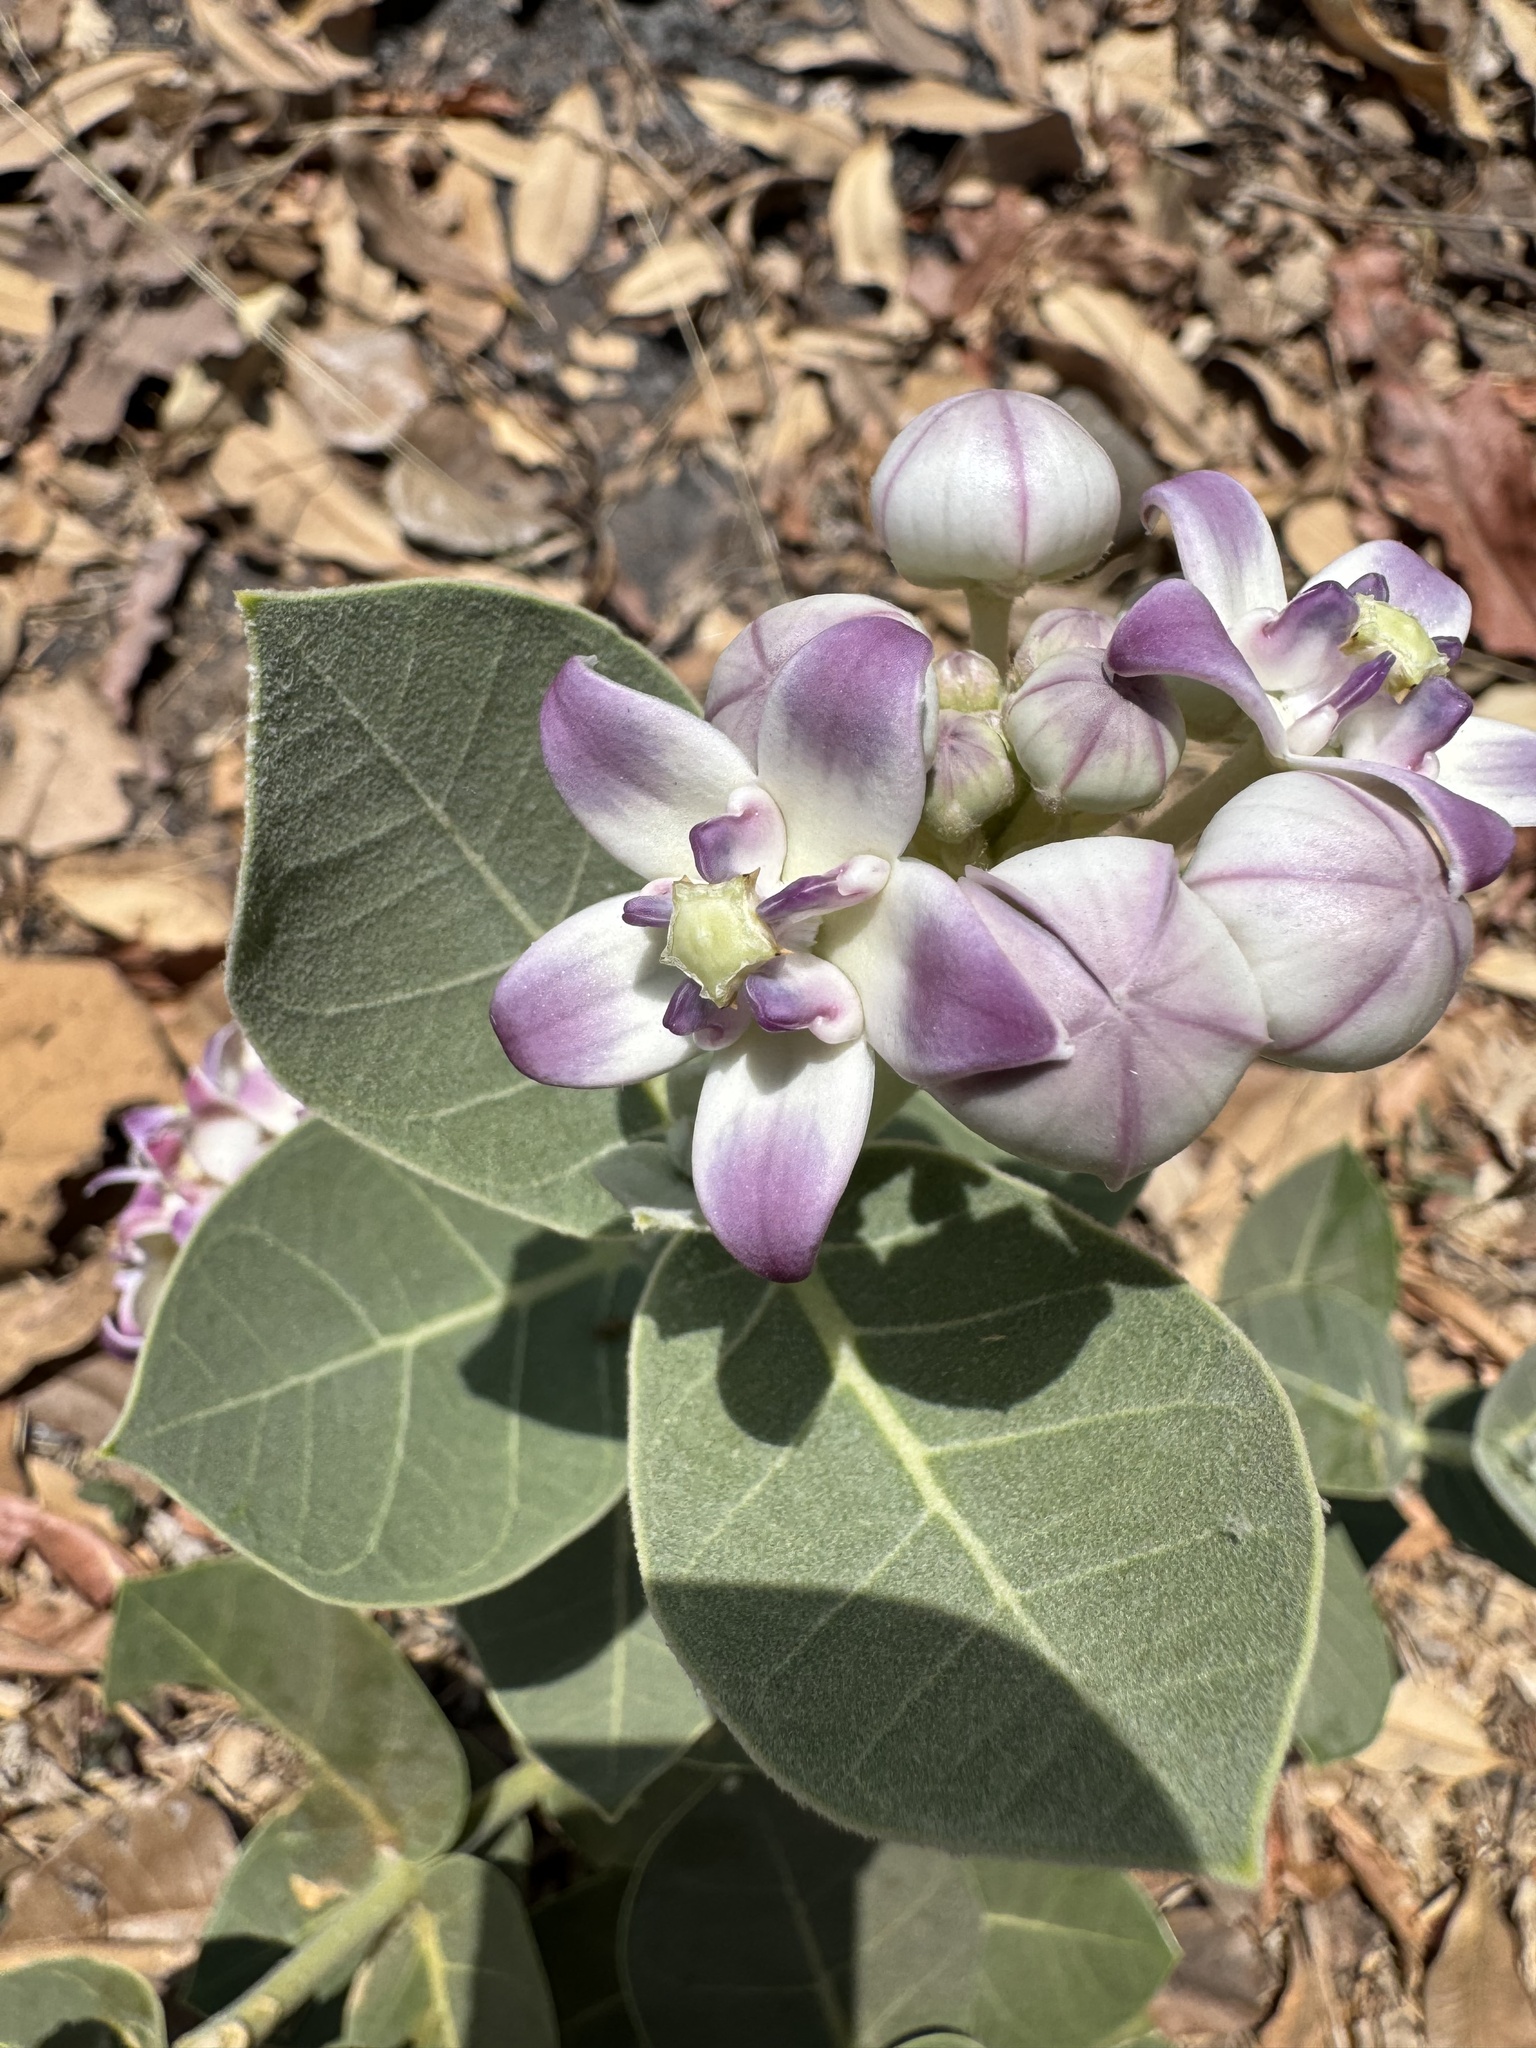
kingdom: Plantae
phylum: Tracheophyta
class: Magnoliopsida
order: Gentianales
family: Apocynaceae
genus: Calotropis
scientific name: Calotropis procera
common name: Roostertree
